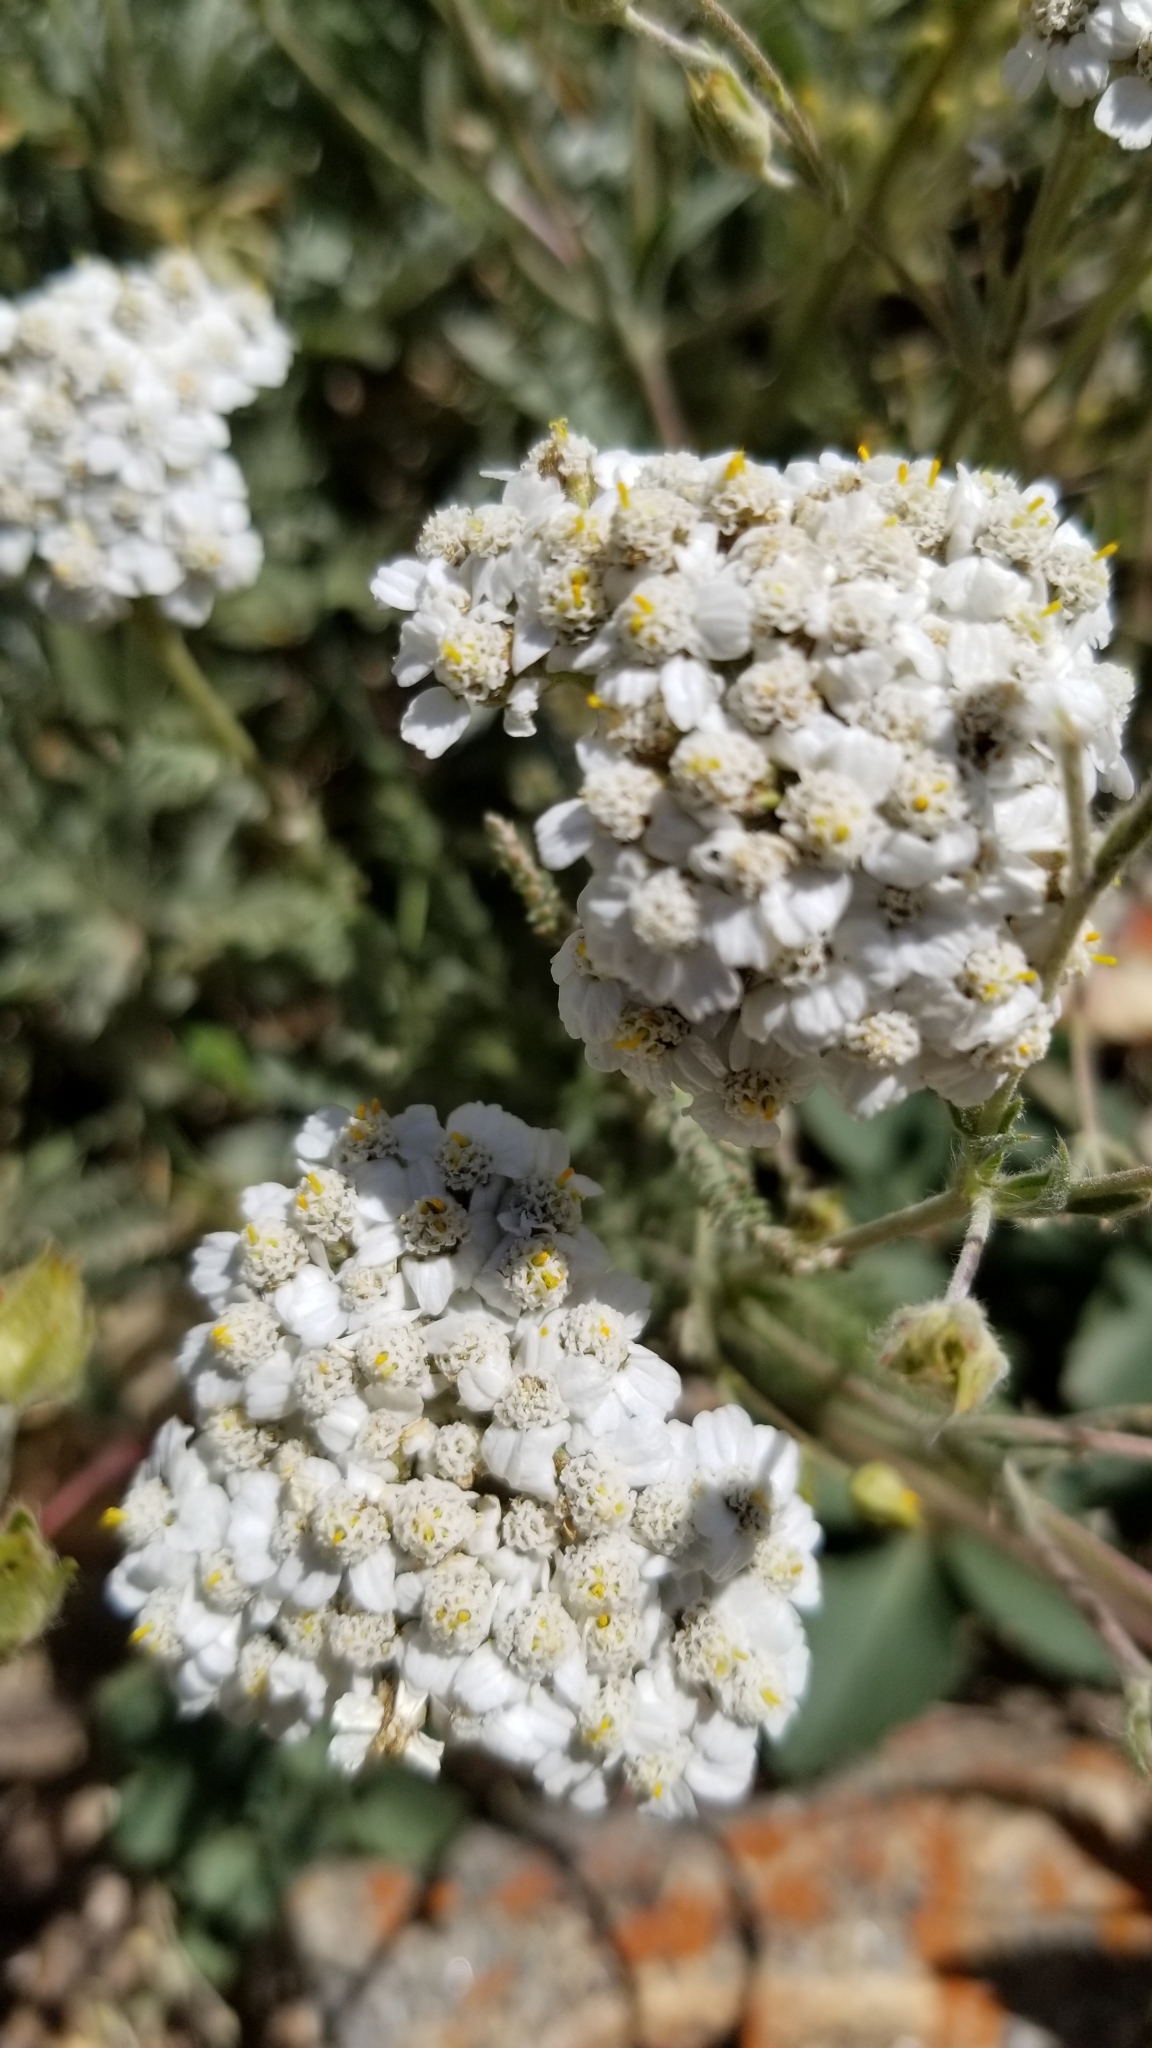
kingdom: Plantae
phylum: Tracheophyta
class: Magnoliopsida
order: Asterales
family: Asteraceae
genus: Achillea
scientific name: Achillea millefolium
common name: Yarrow
